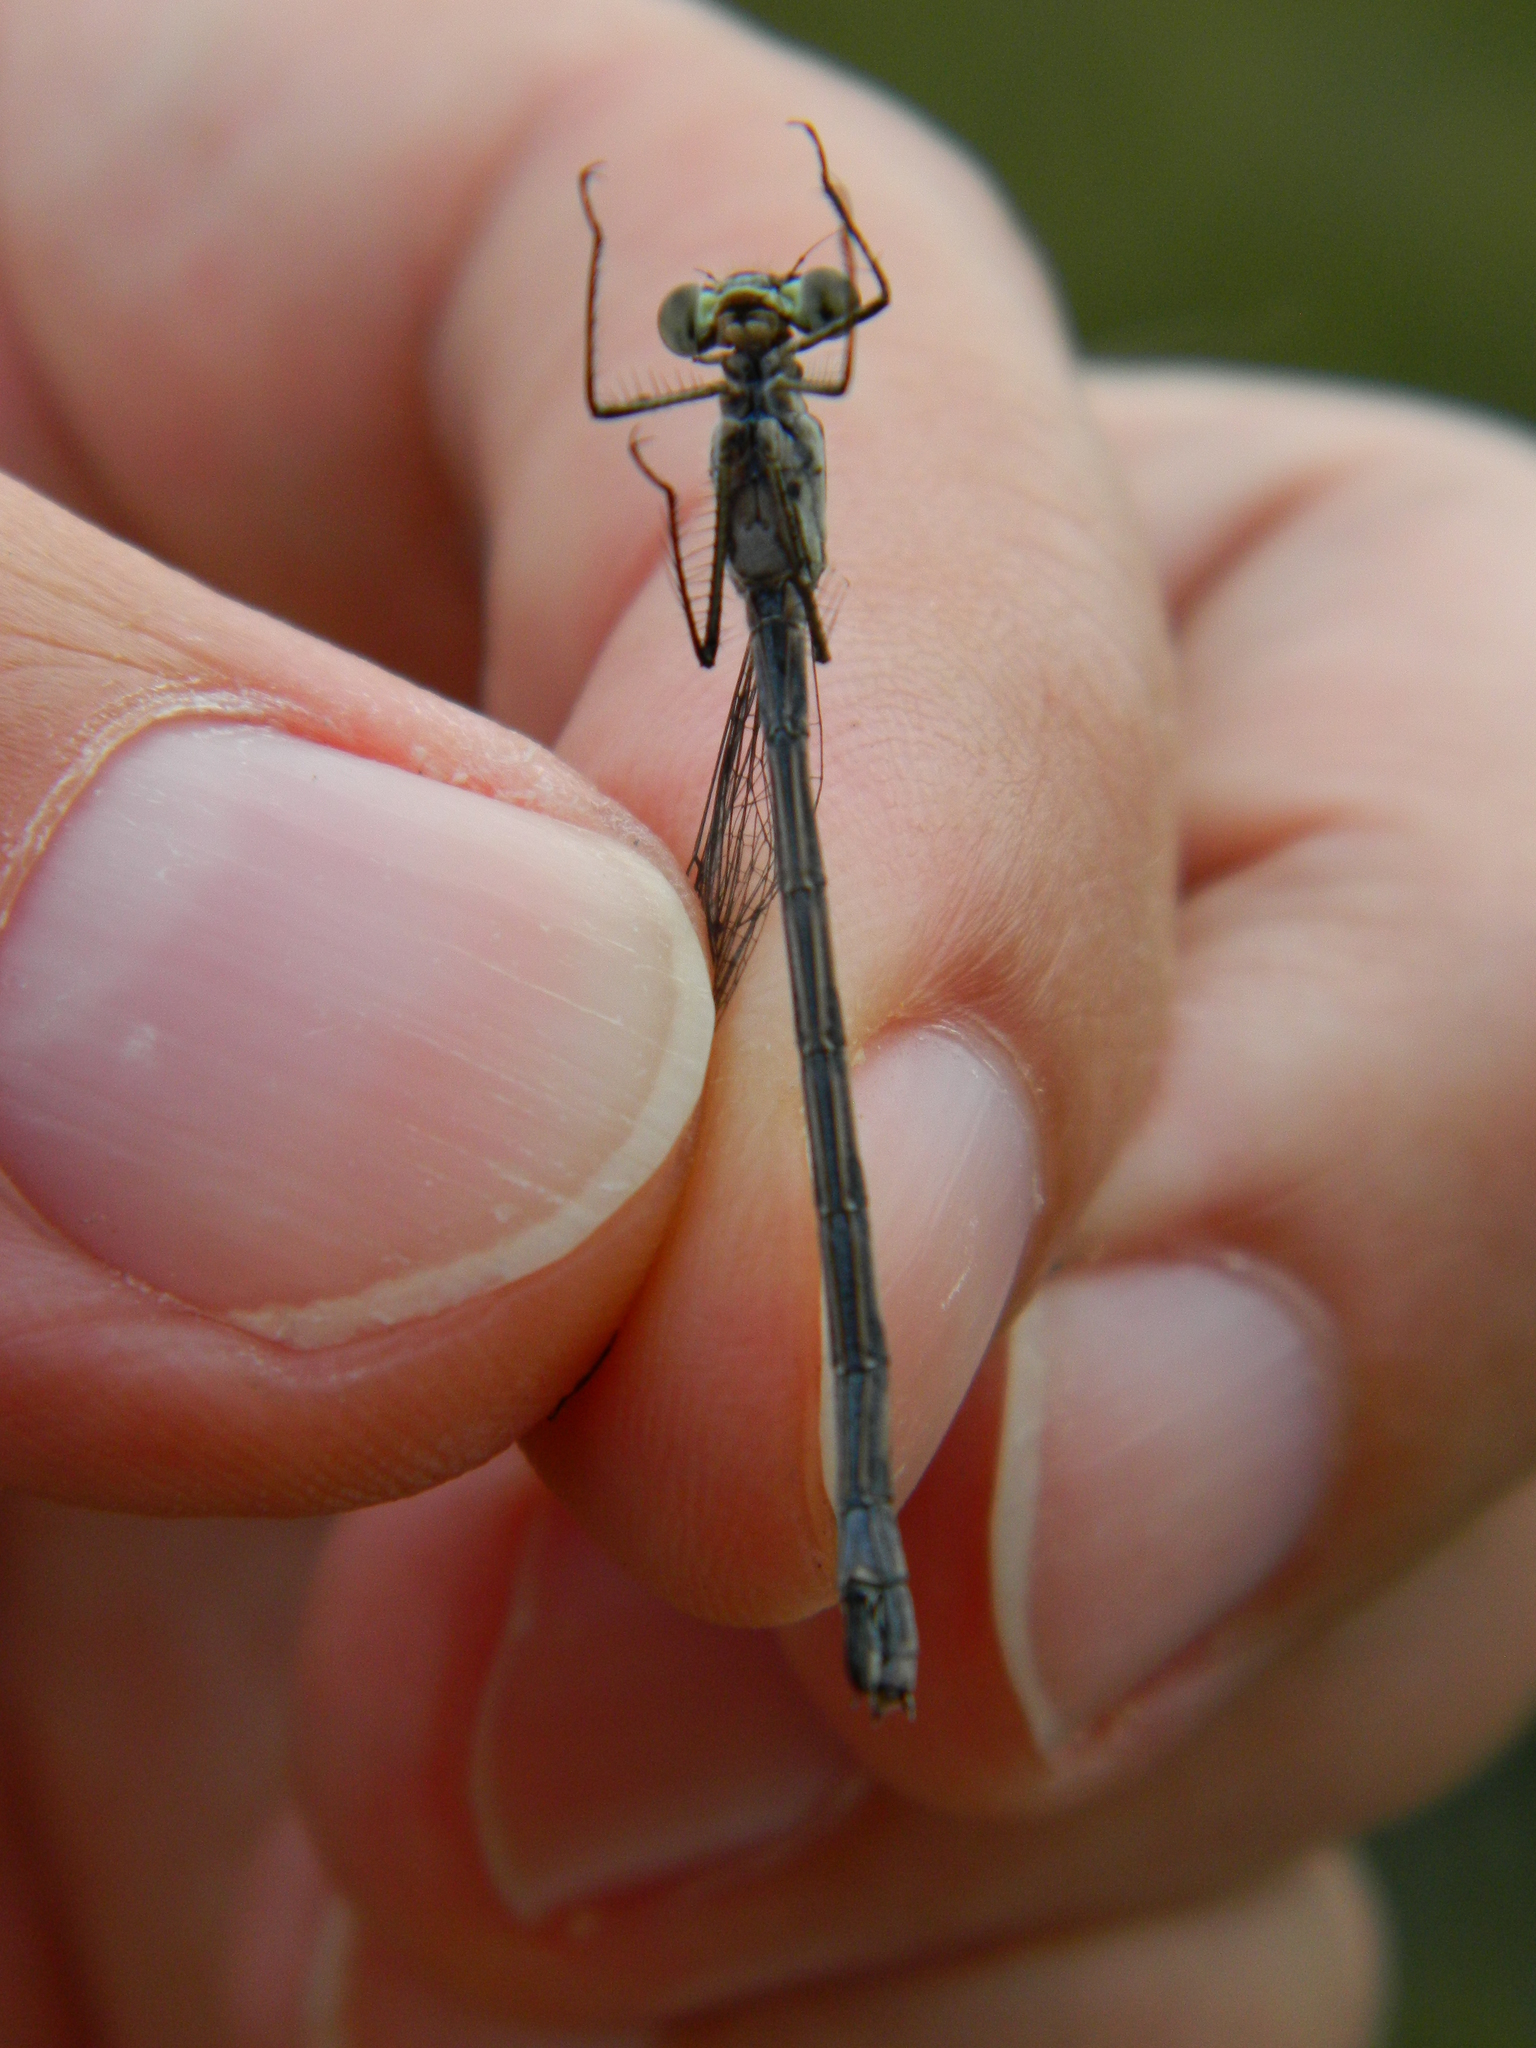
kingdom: Animalia
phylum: Arthropoda
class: Insecta
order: Odonata
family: Lestidae
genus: Lestes
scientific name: Lestes disjunctus
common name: Northern spreadwing
